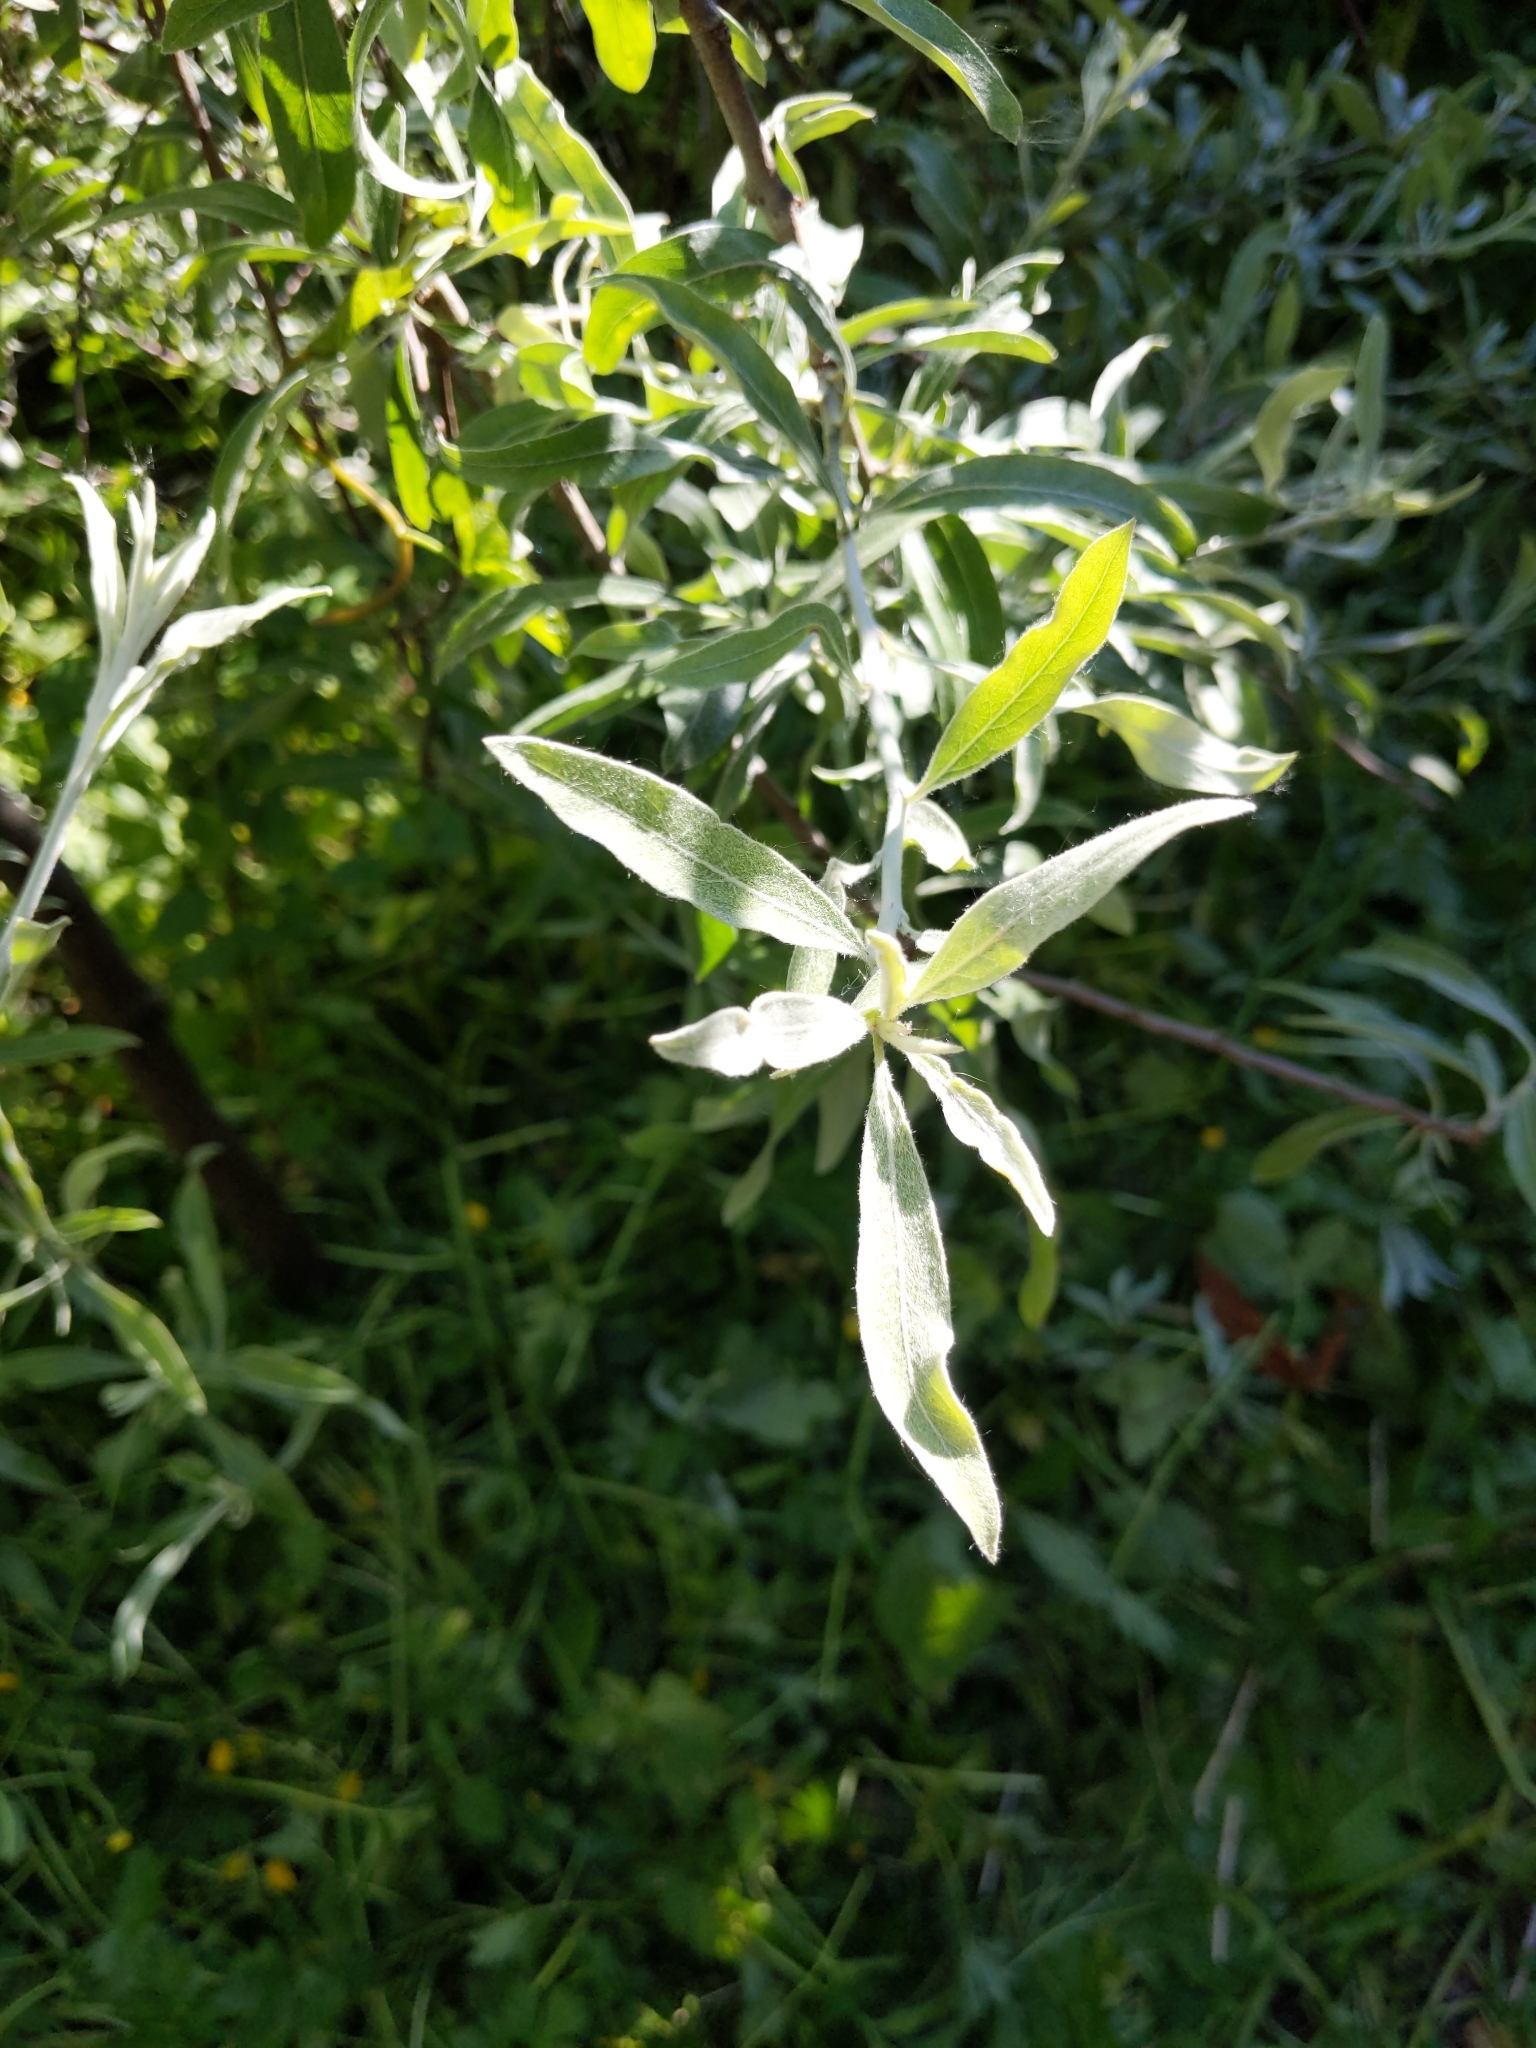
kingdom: Plantae
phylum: Tracheophyta
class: Magnoliopsida
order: Rosales
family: Elaeagnaceae
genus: Elaeagnus
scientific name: Elaeagnus angustifolia
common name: Russian olive
